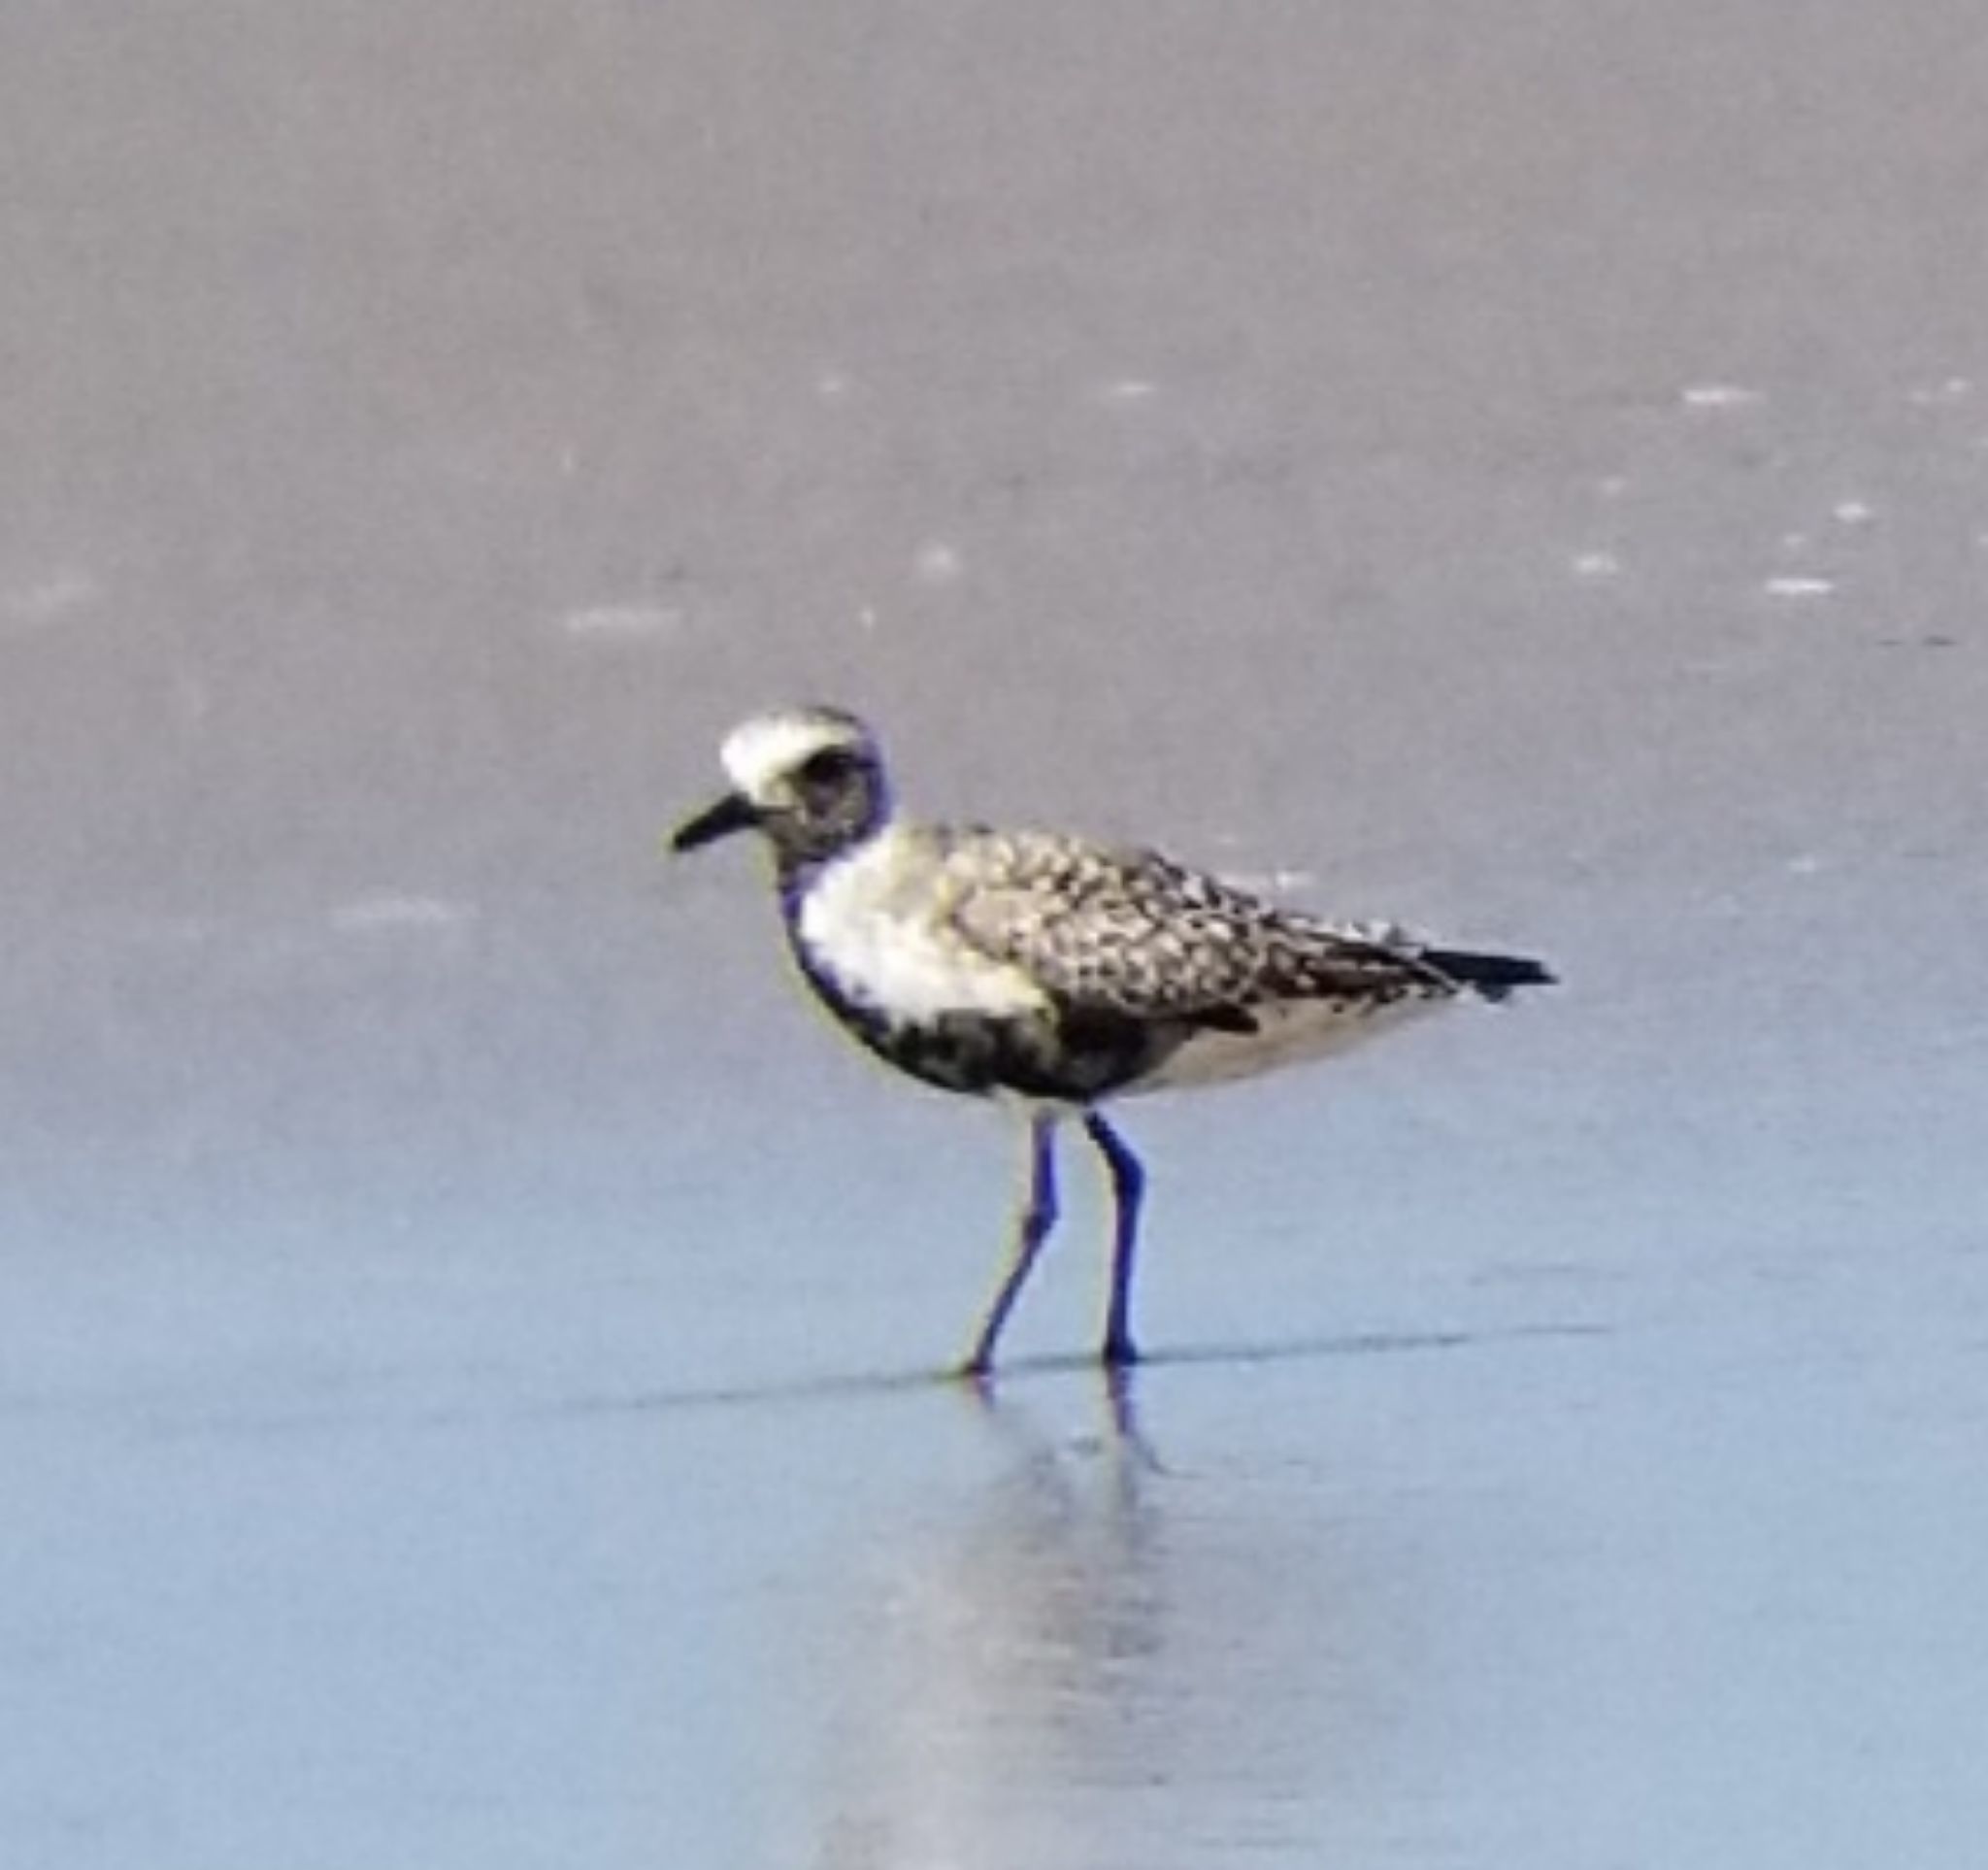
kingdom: Animalia
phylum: Chordata
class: Aves
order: Charadriiformes
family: Charadriidae
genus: Pluvialis
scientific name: Pluvialis squatarola
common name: Grey plover
